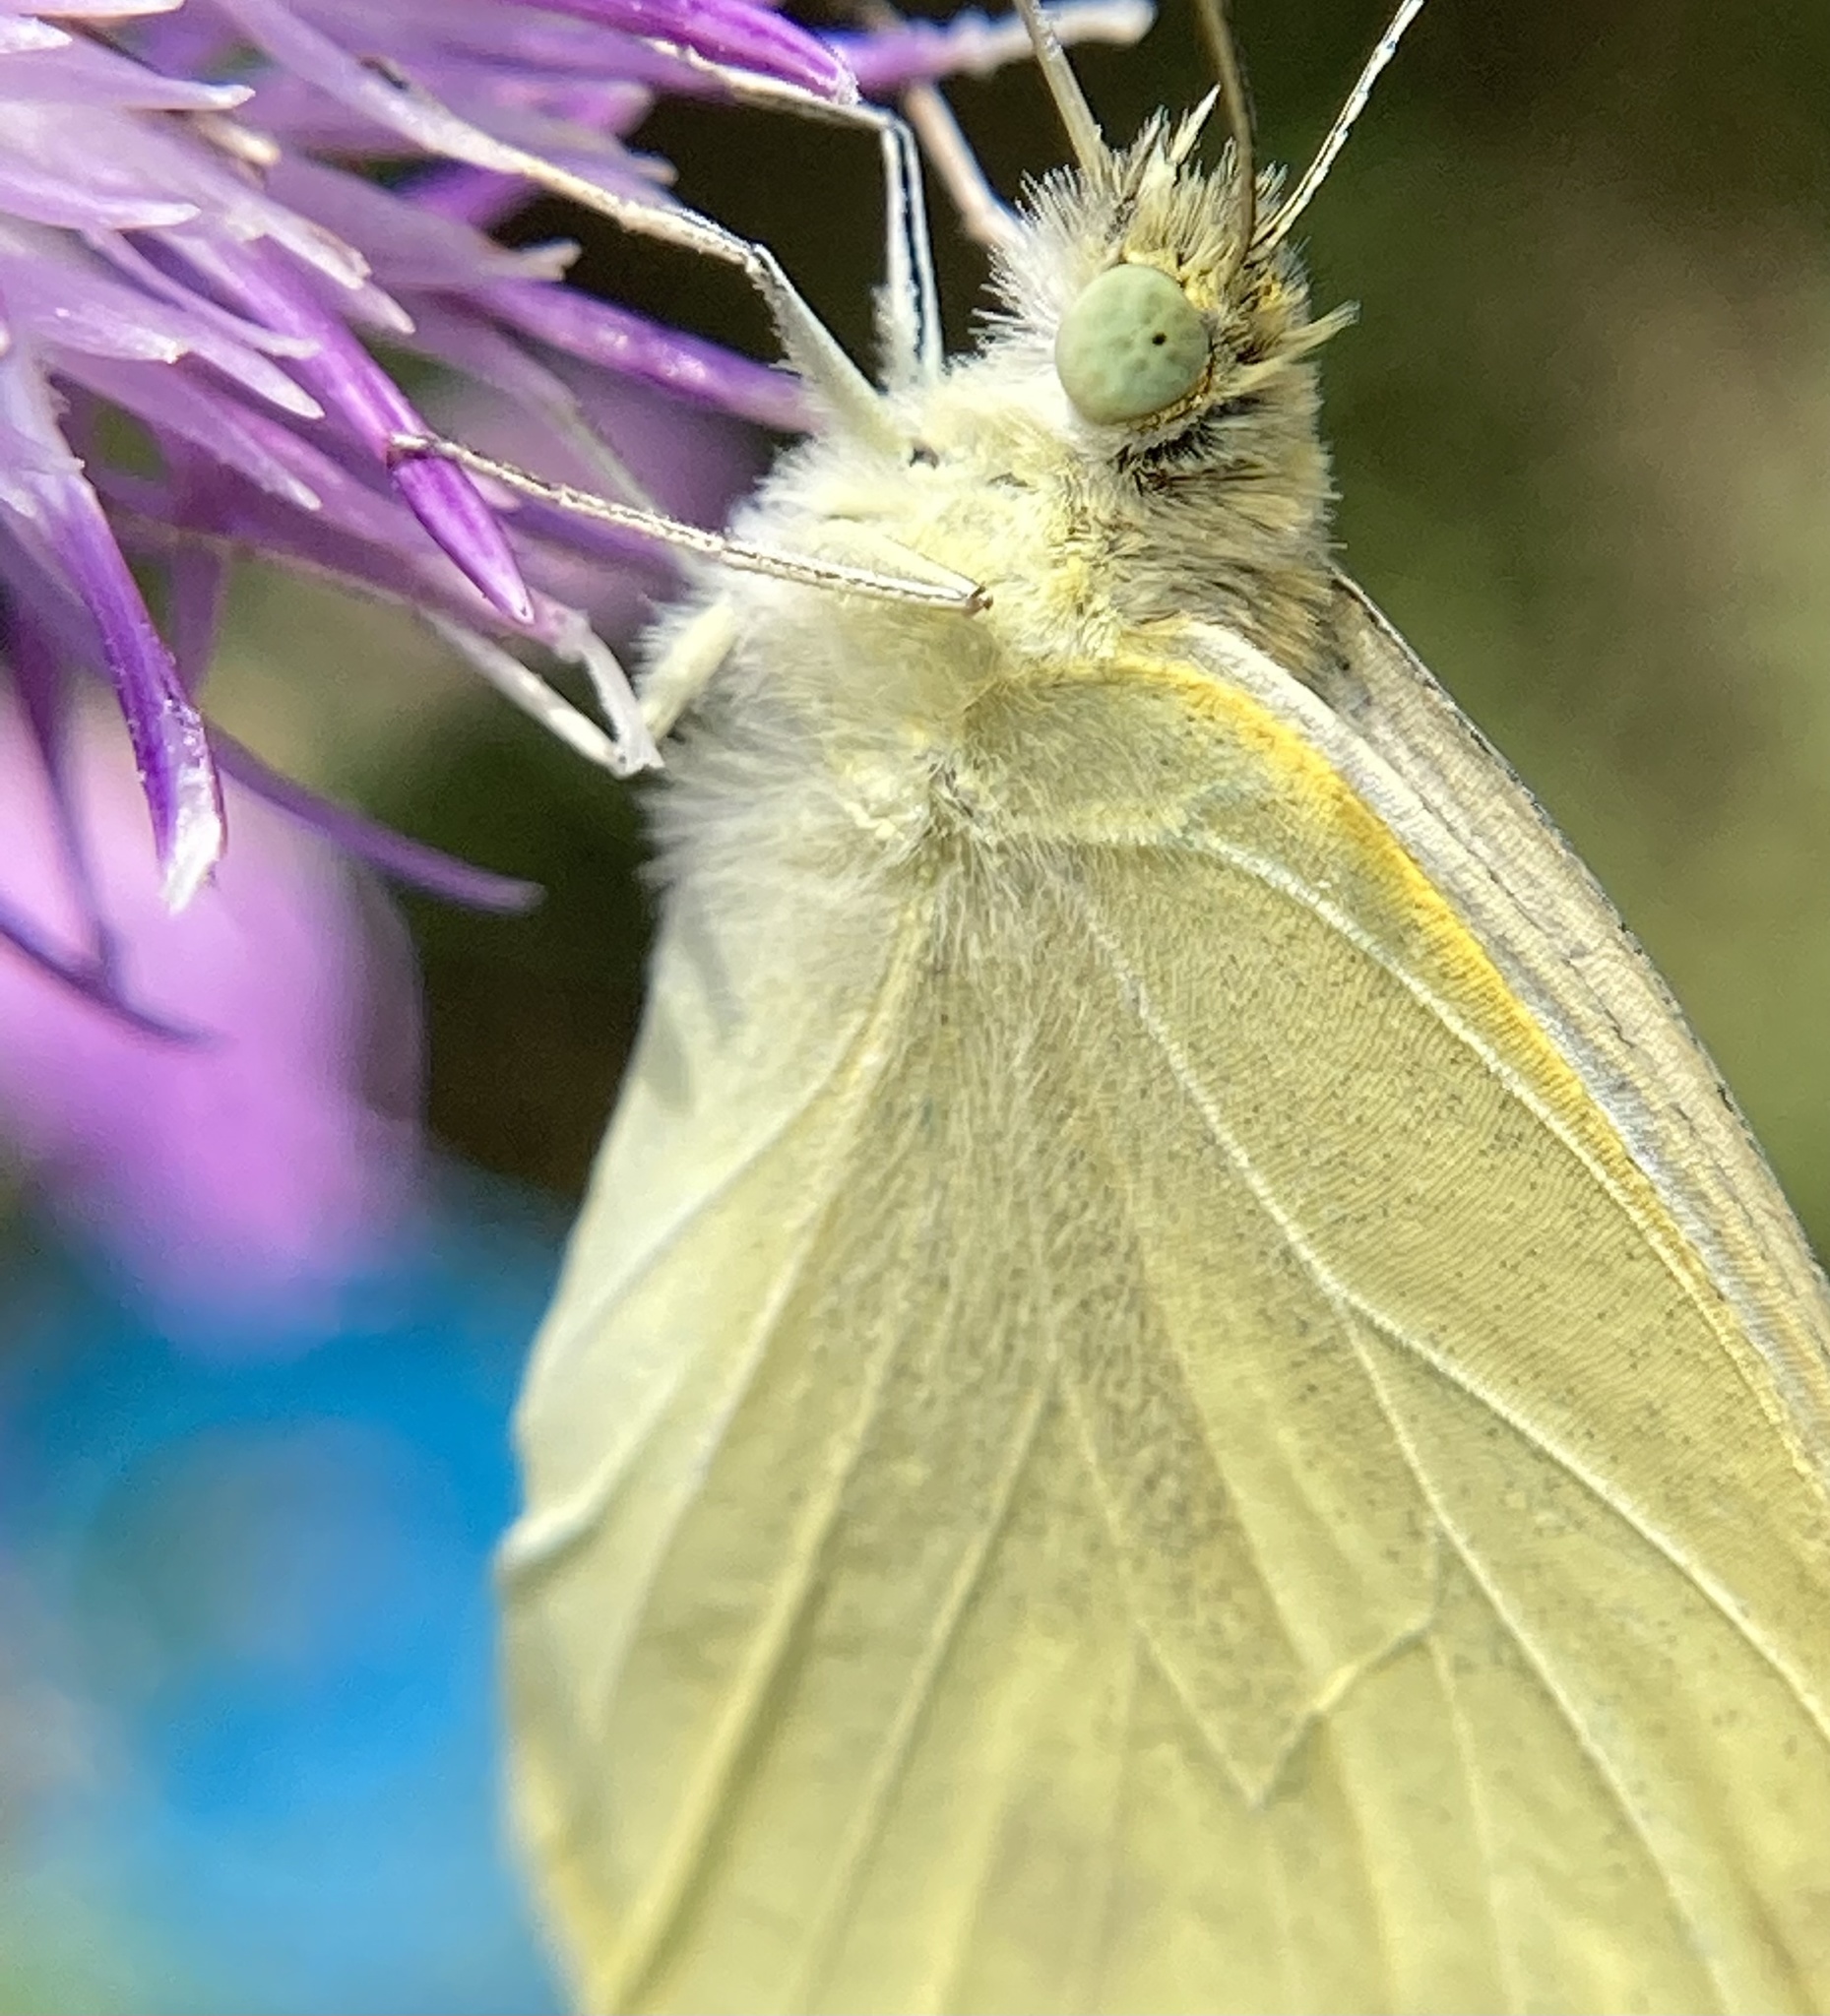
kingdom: Animalia
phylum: Arthropoda
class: Insecta
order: Lepidoptera
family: Pieridae
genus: Pieris
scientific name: Pieris rapae
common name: Small white
